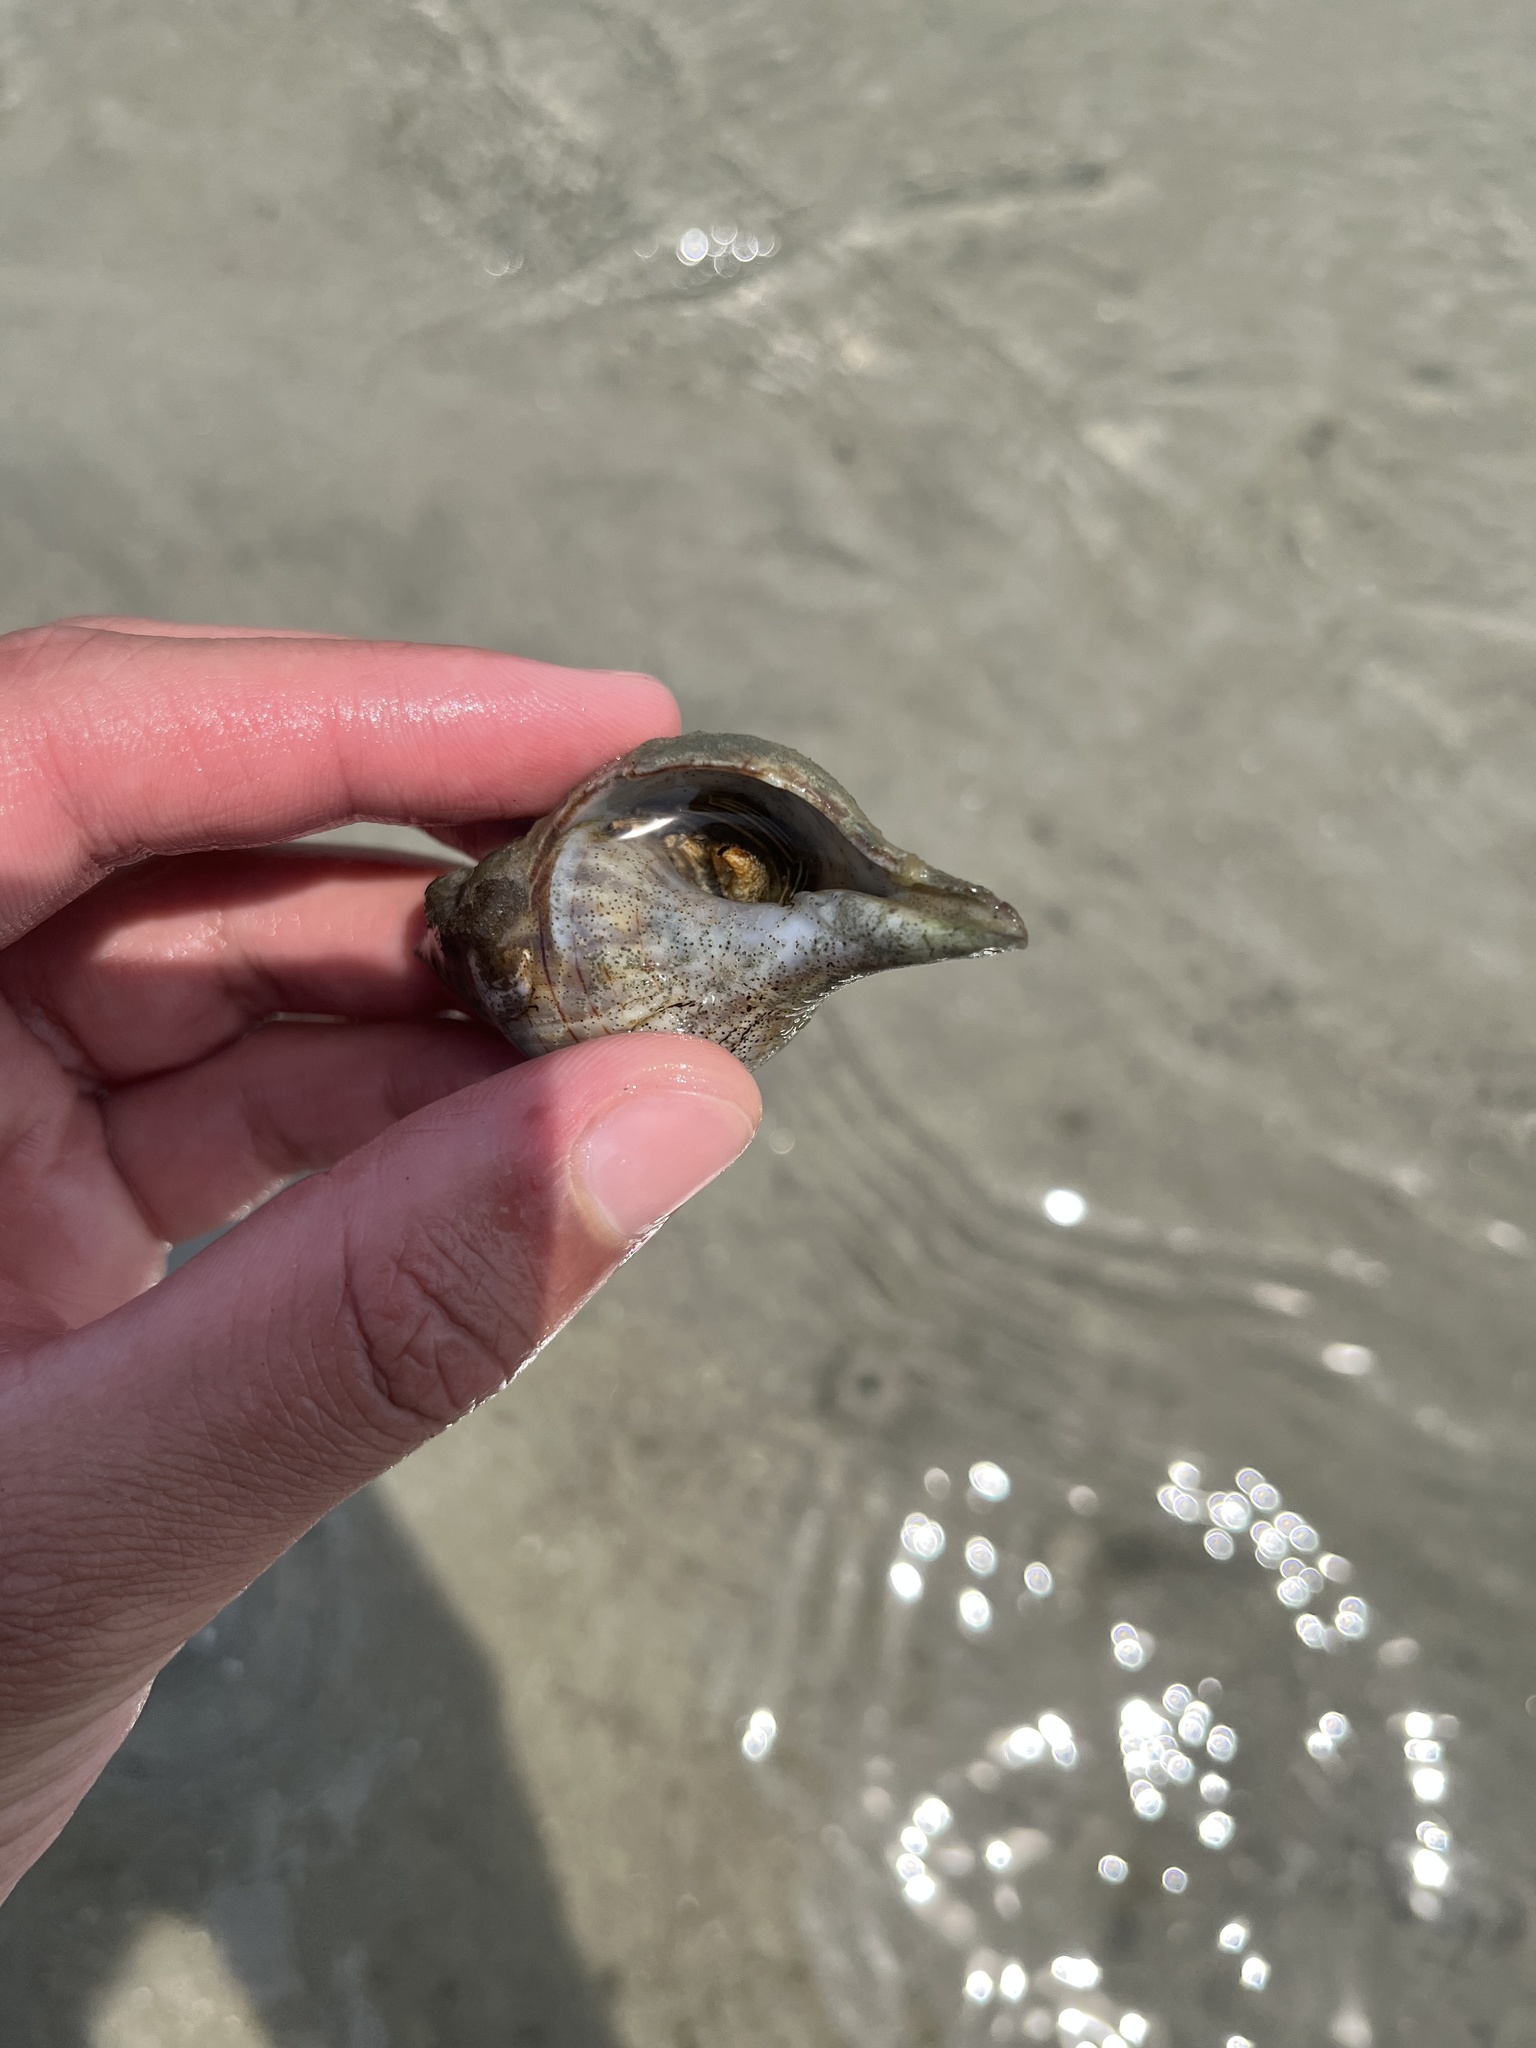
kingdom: Animalia
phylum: Arthropoda
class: Malacostraca
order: Decapoda
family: Diogenidae
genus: Clibanarius
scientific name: Clibanarius vittatus
